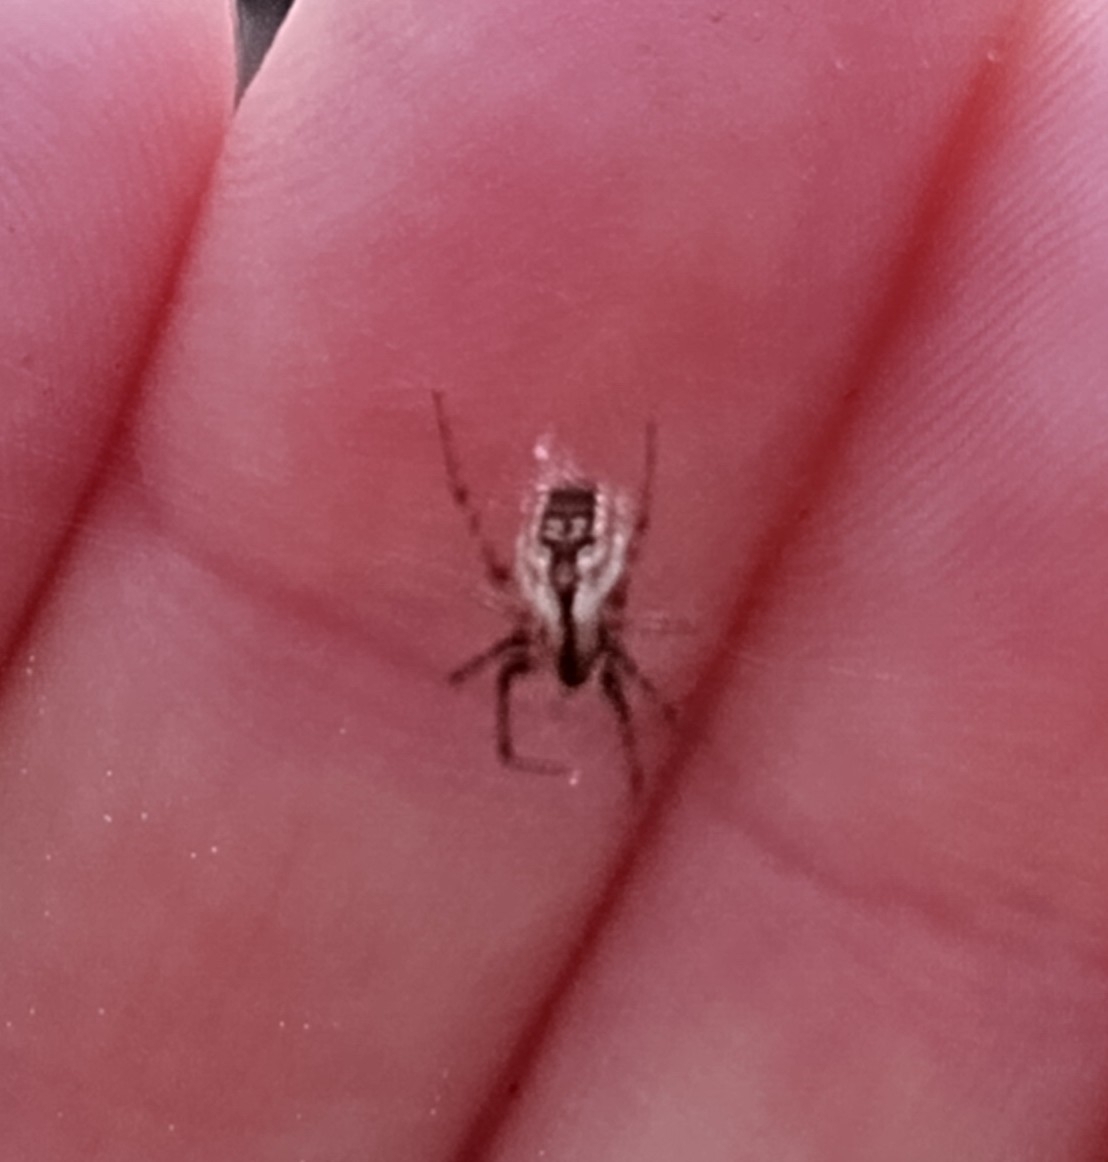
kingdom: Animalia
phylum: Arthropoda
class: Arachnida
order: Araneae
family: Araneidae
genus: Mangora
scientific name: Mangora placida
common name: Tuft-legged orbweaver
